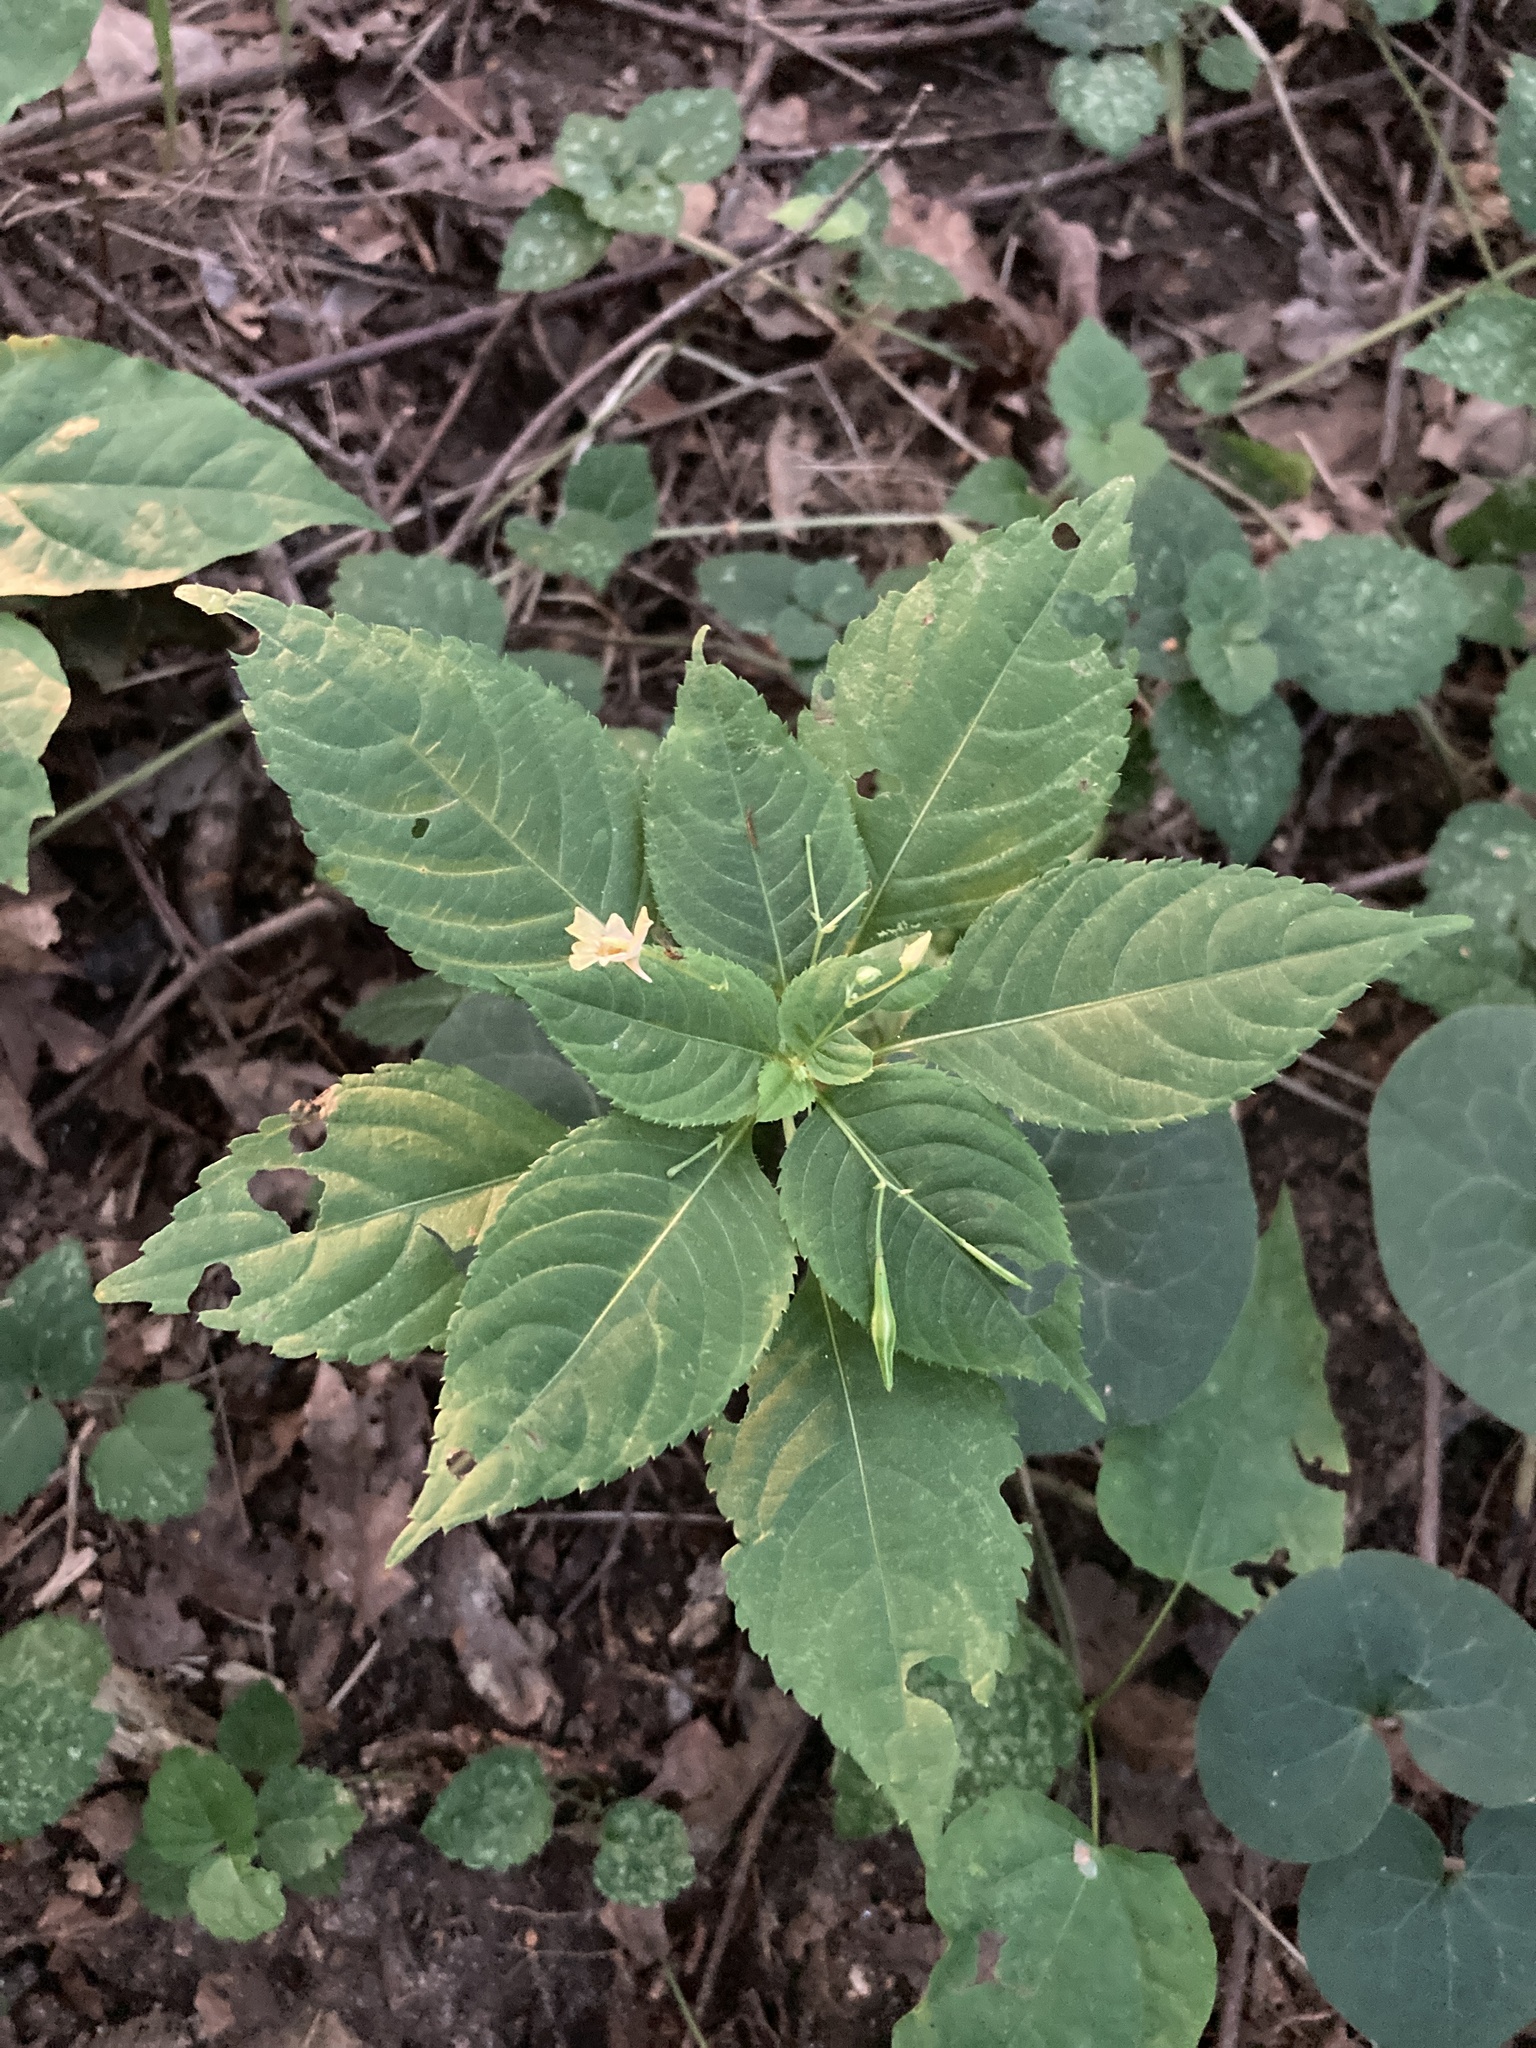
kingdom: Plantae
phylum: Tracheophyta
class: Magnoliopsida
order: Ericales
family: Balsaminaceae
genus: Impatiens
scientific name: Impatiens parviflora
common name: Small balsam
